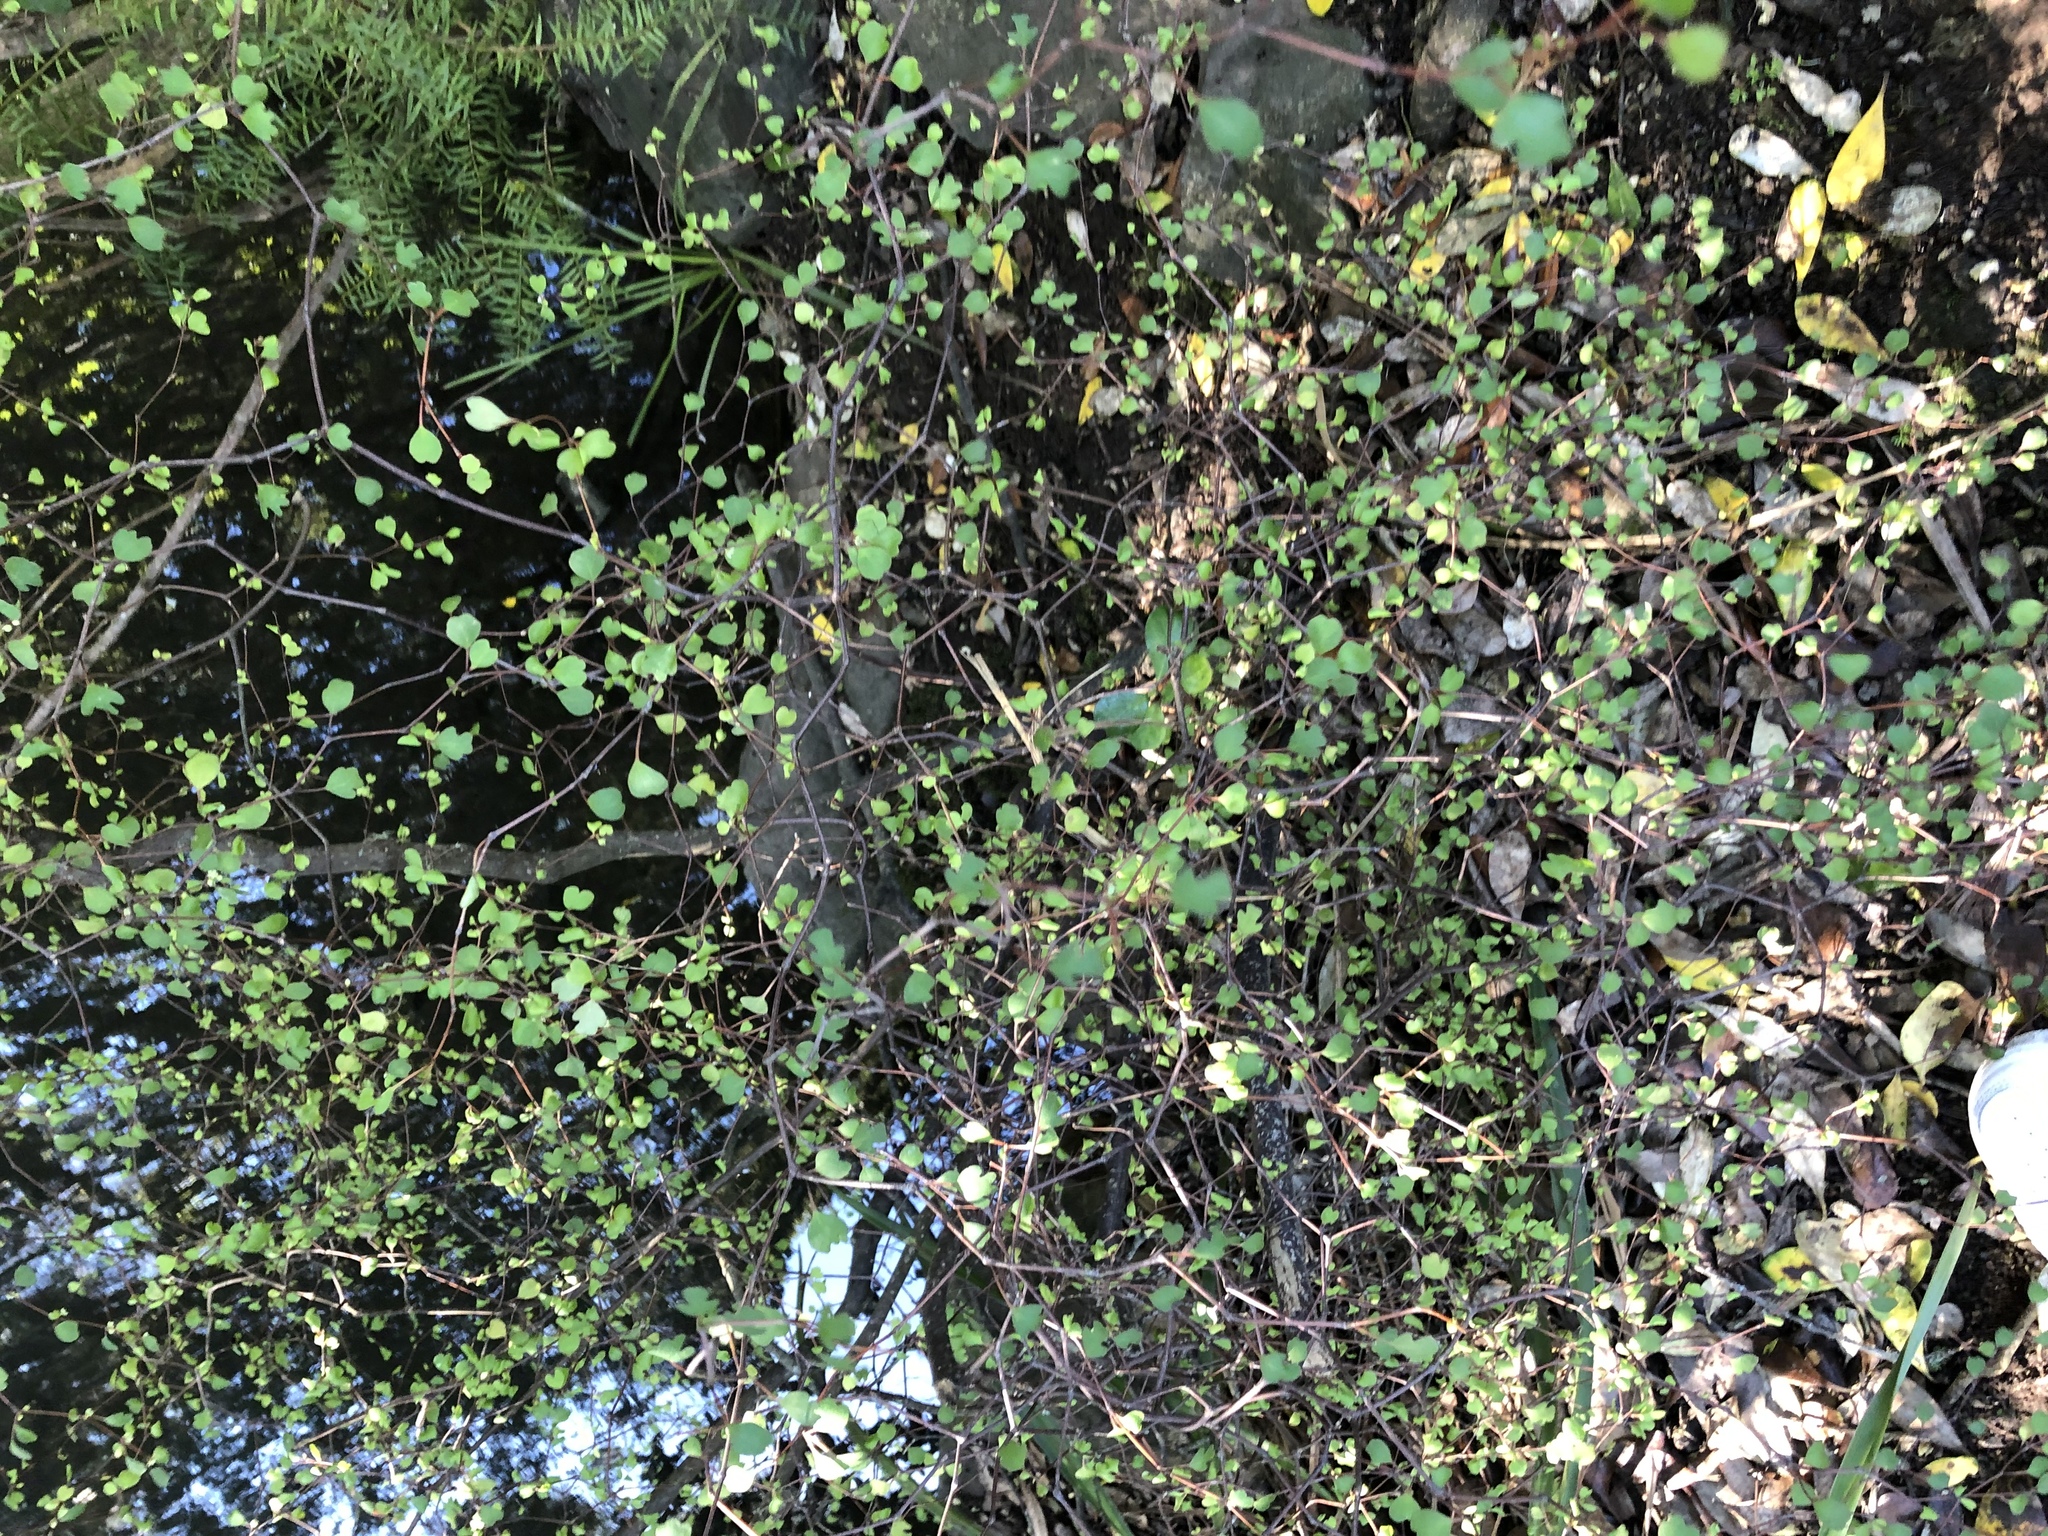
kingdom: Plantae
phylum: Tracheophyta
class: Magnoliopsida
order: Caryophyllales
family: Polygonaceae
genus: Muehlenbeckia
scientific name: Muehlenbeckia astonii
